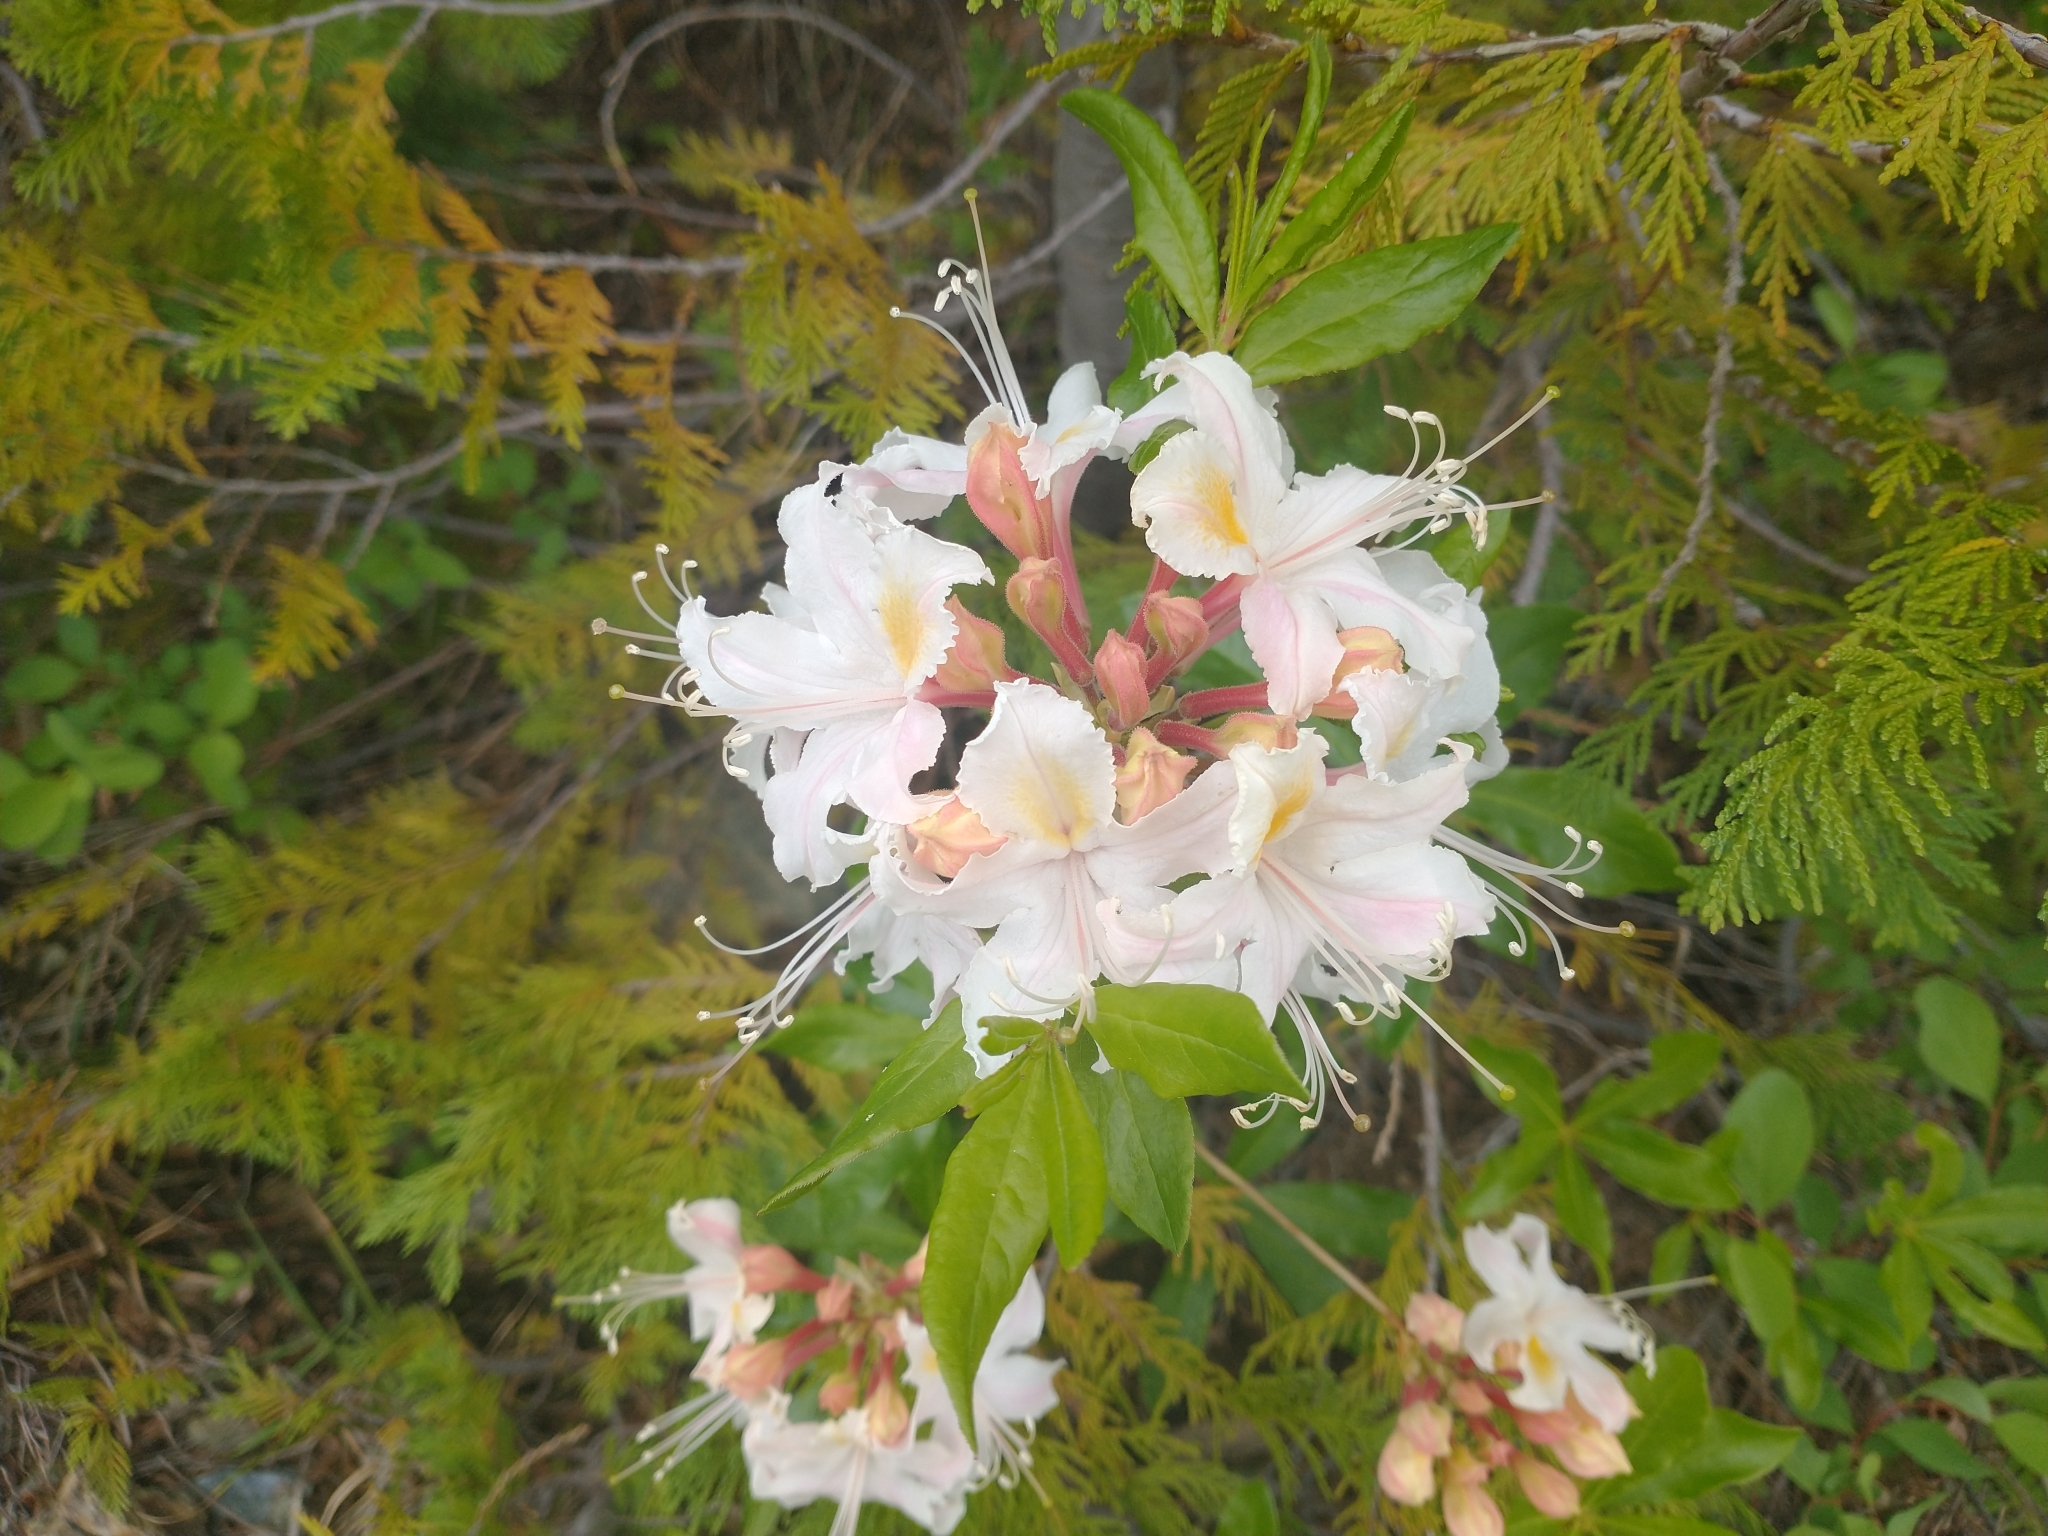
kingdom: Plantae
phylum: Tracheophyta
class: Magnoliopsida
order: Ericales
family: Ericaceae
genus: Rhododendron
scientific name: Rhododendron occidentale
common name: Western azalea
